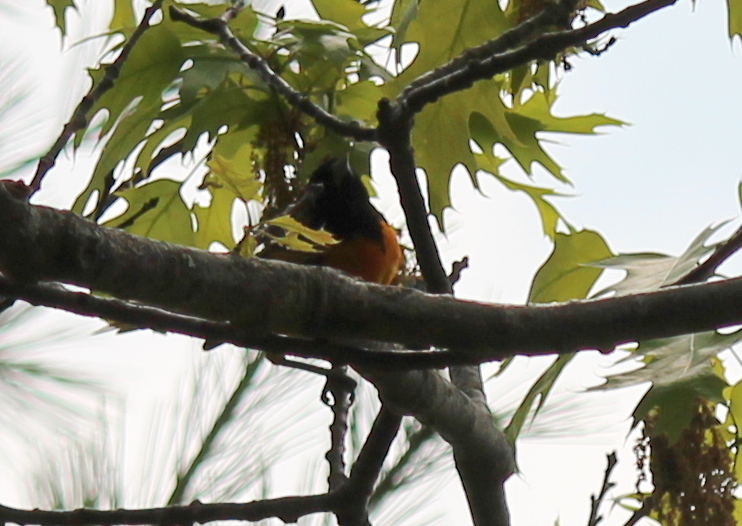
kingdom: Animalia
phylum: Chordata
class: Aves
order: Passeriformes
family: Icteridae
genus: Icterus
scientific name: Icterus galbula
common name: Baltimore oriole
